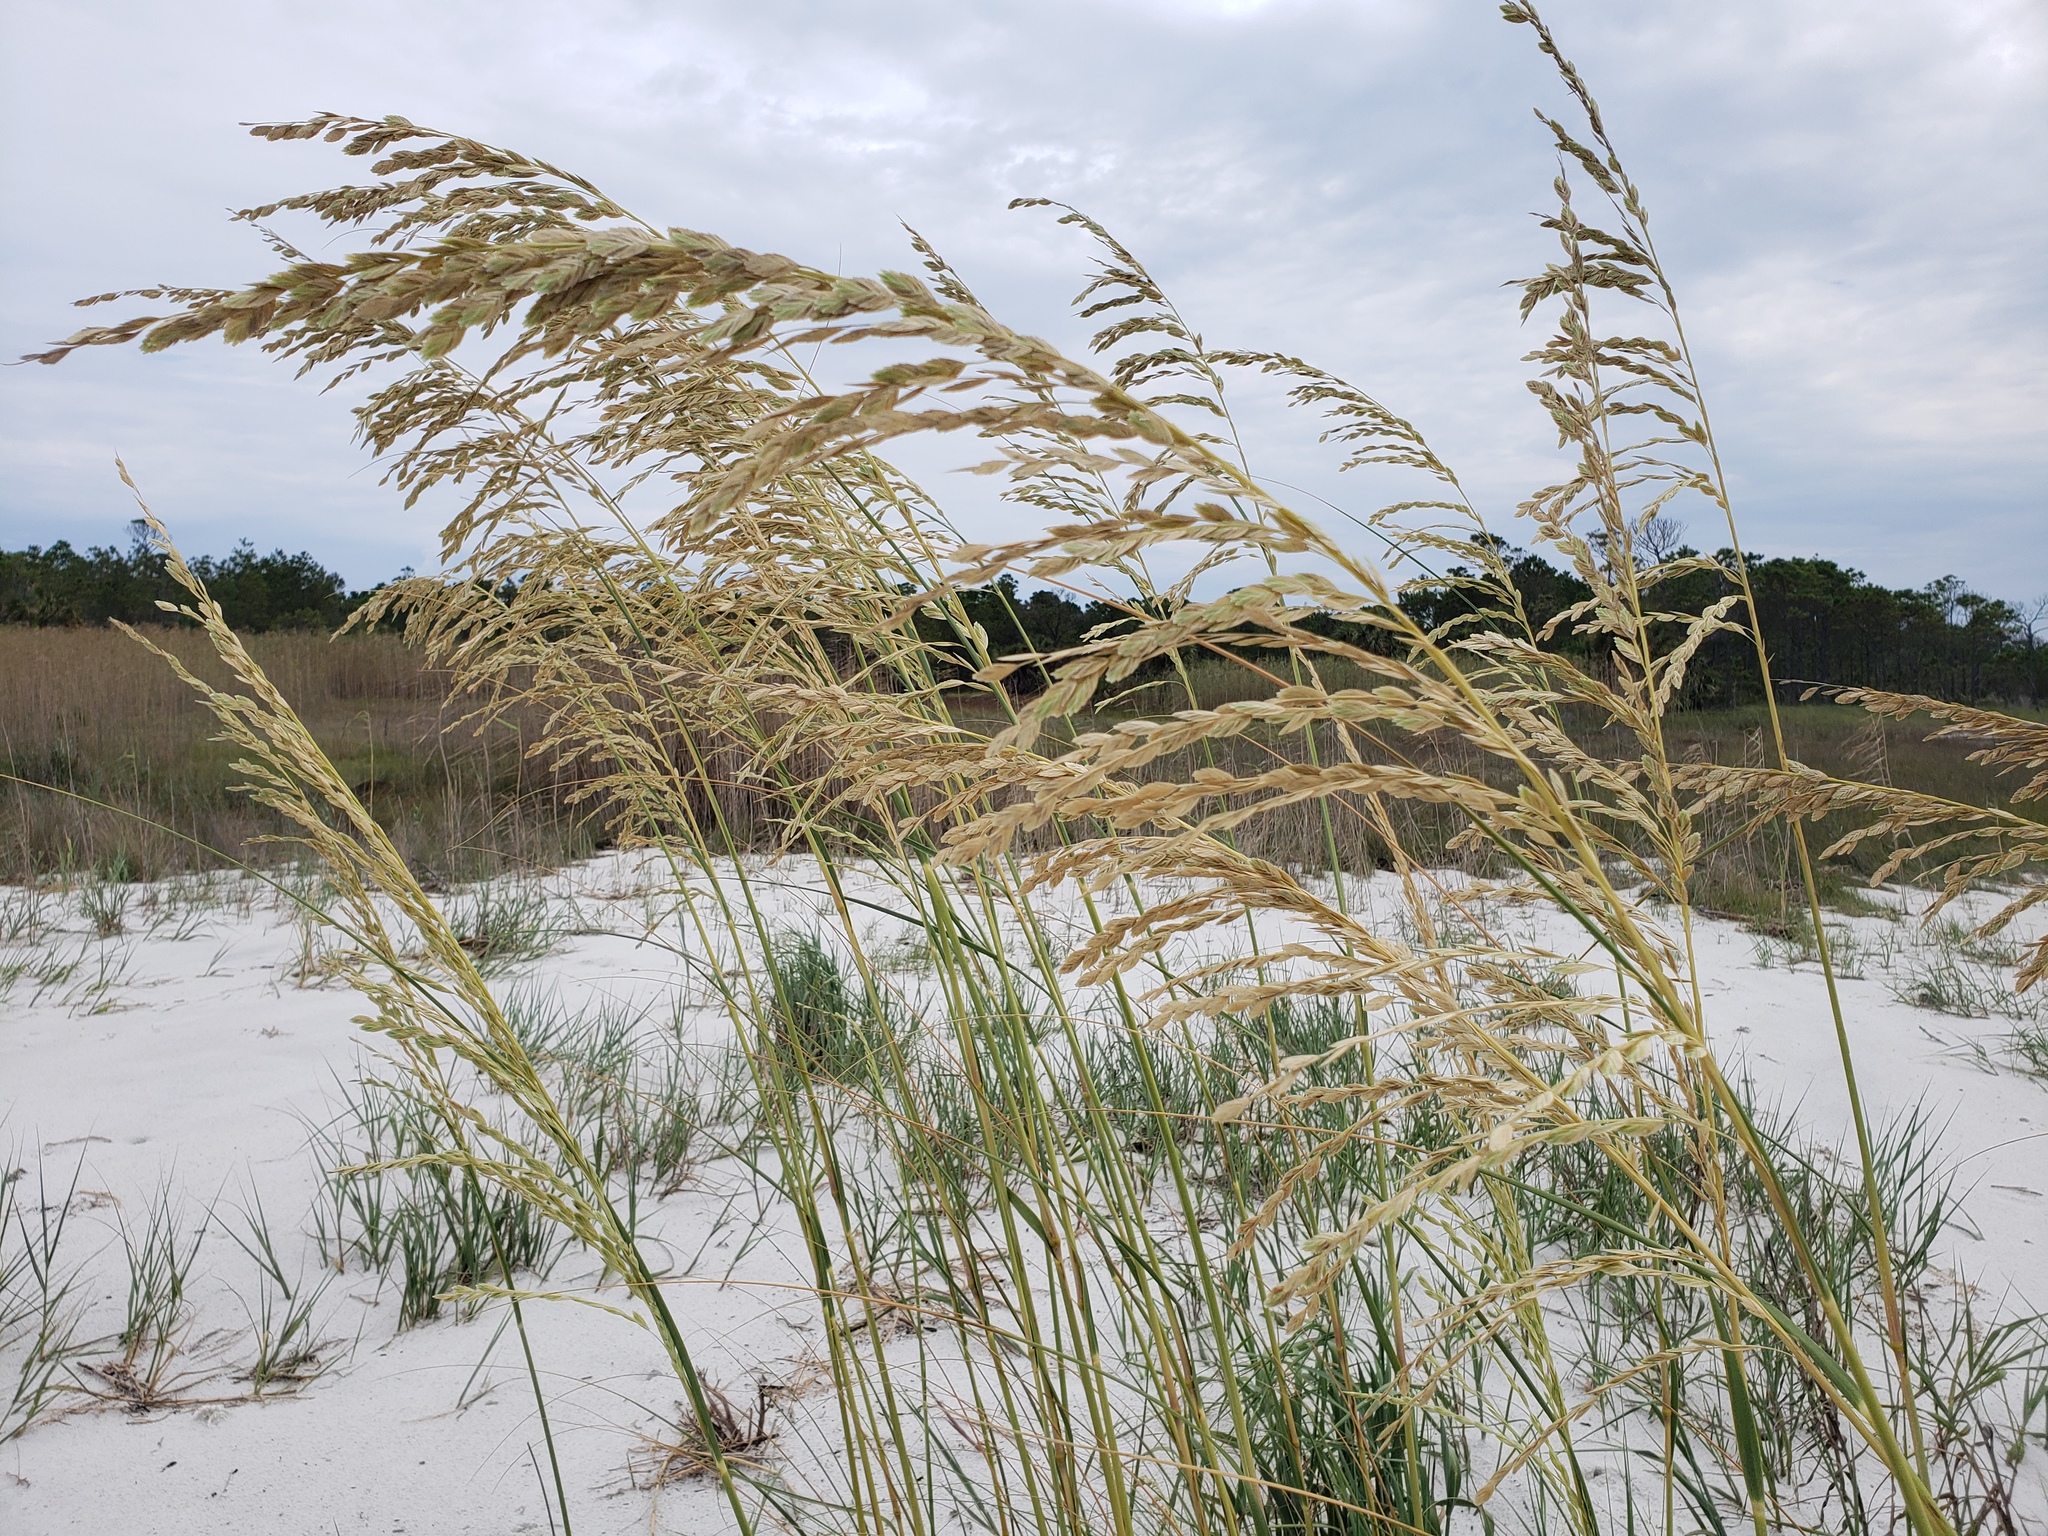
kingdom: Plantae
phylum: Tracheophyta
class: Liliopsida
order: Poales
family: Poaceae
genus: Uniola
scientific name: Uniola paniculata
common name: Seaside-oats
